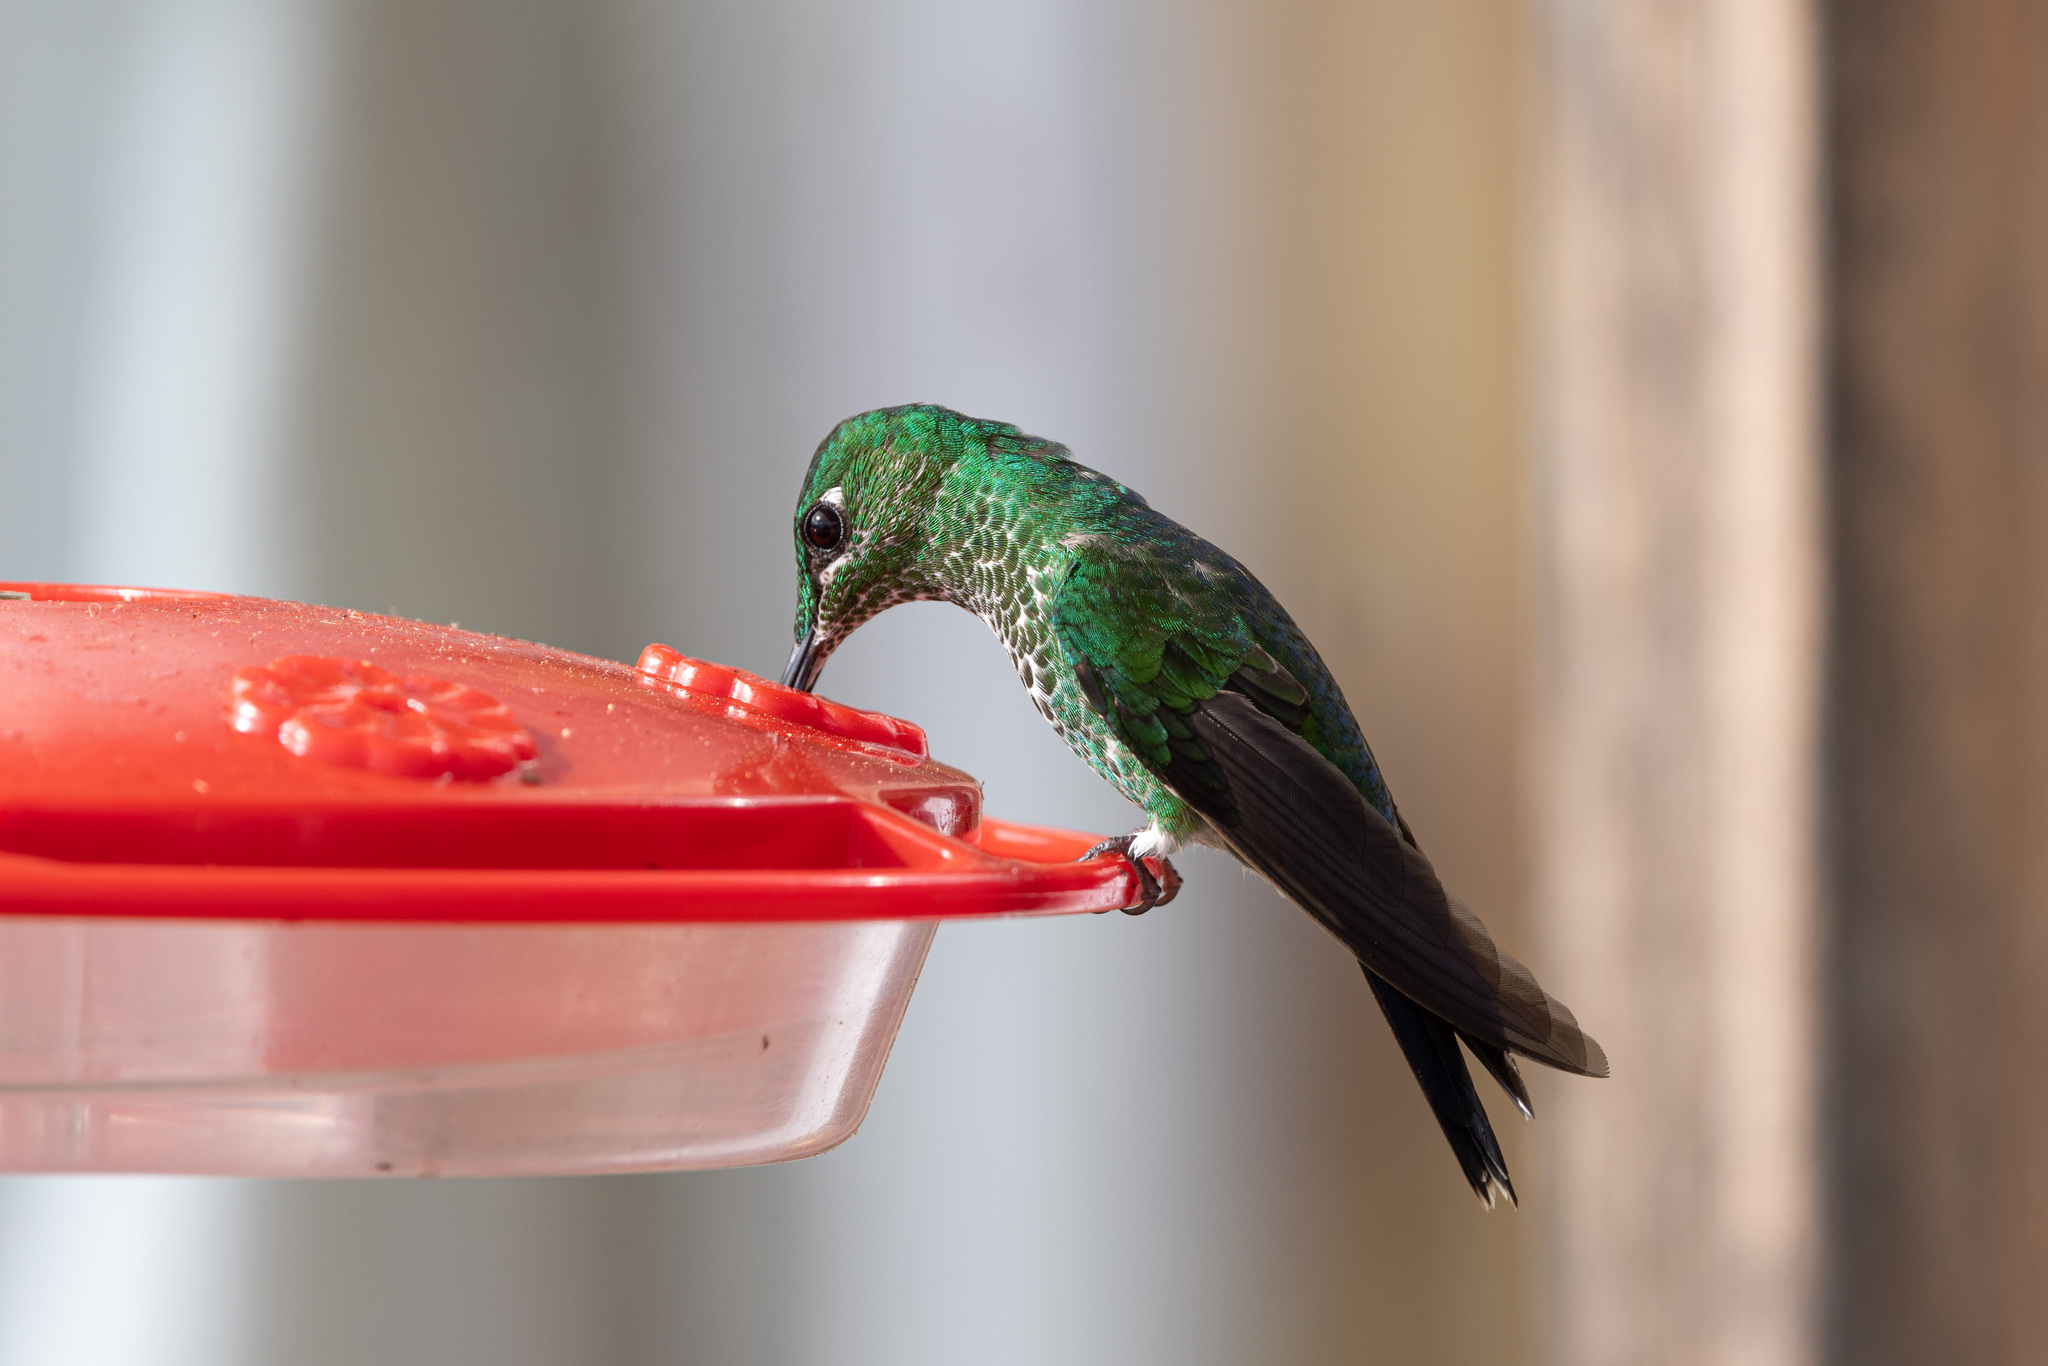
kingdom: Animalia
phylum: Chordata
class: Aves
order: Apodiformes
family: Trochilidae
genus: Heliodoxa
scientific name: Heliodoxa jacula
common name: Green-crowned brilliant
